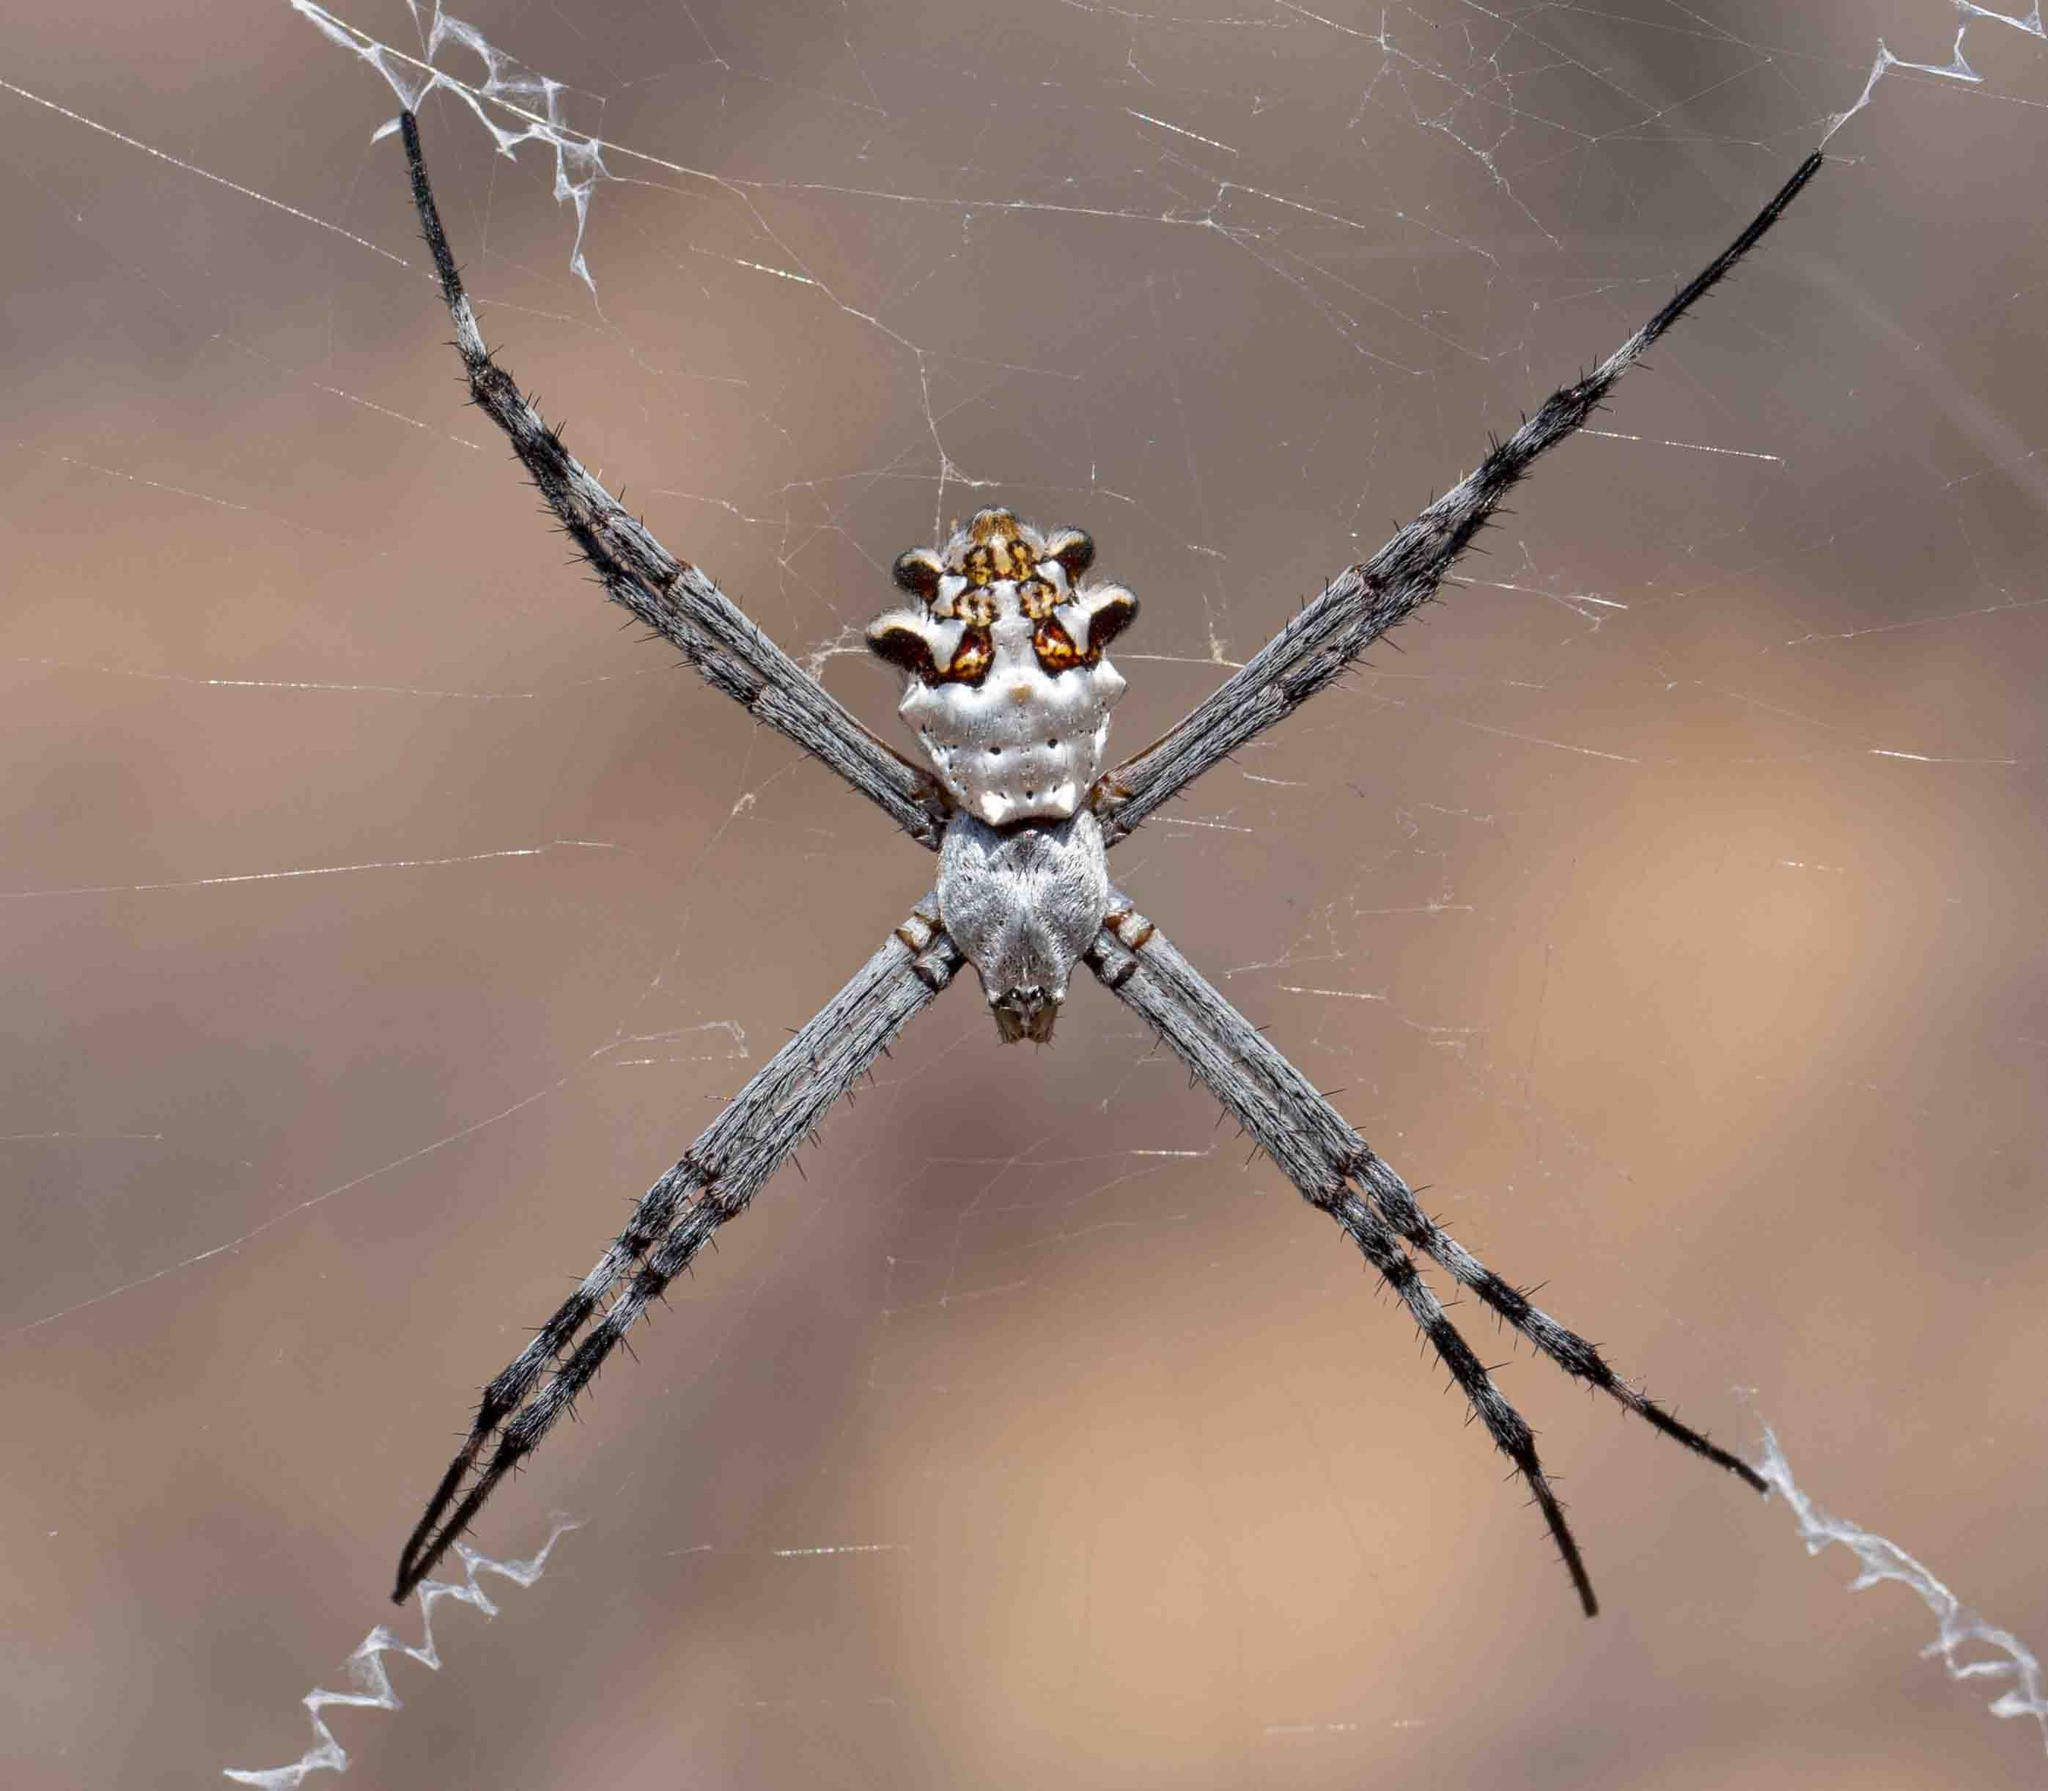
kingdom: Animalia
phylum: Arthropoda
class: Arachnida
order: Araneae
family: Araneidae
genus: Argiope
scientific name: Argiope argentata
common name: Orb weavers
